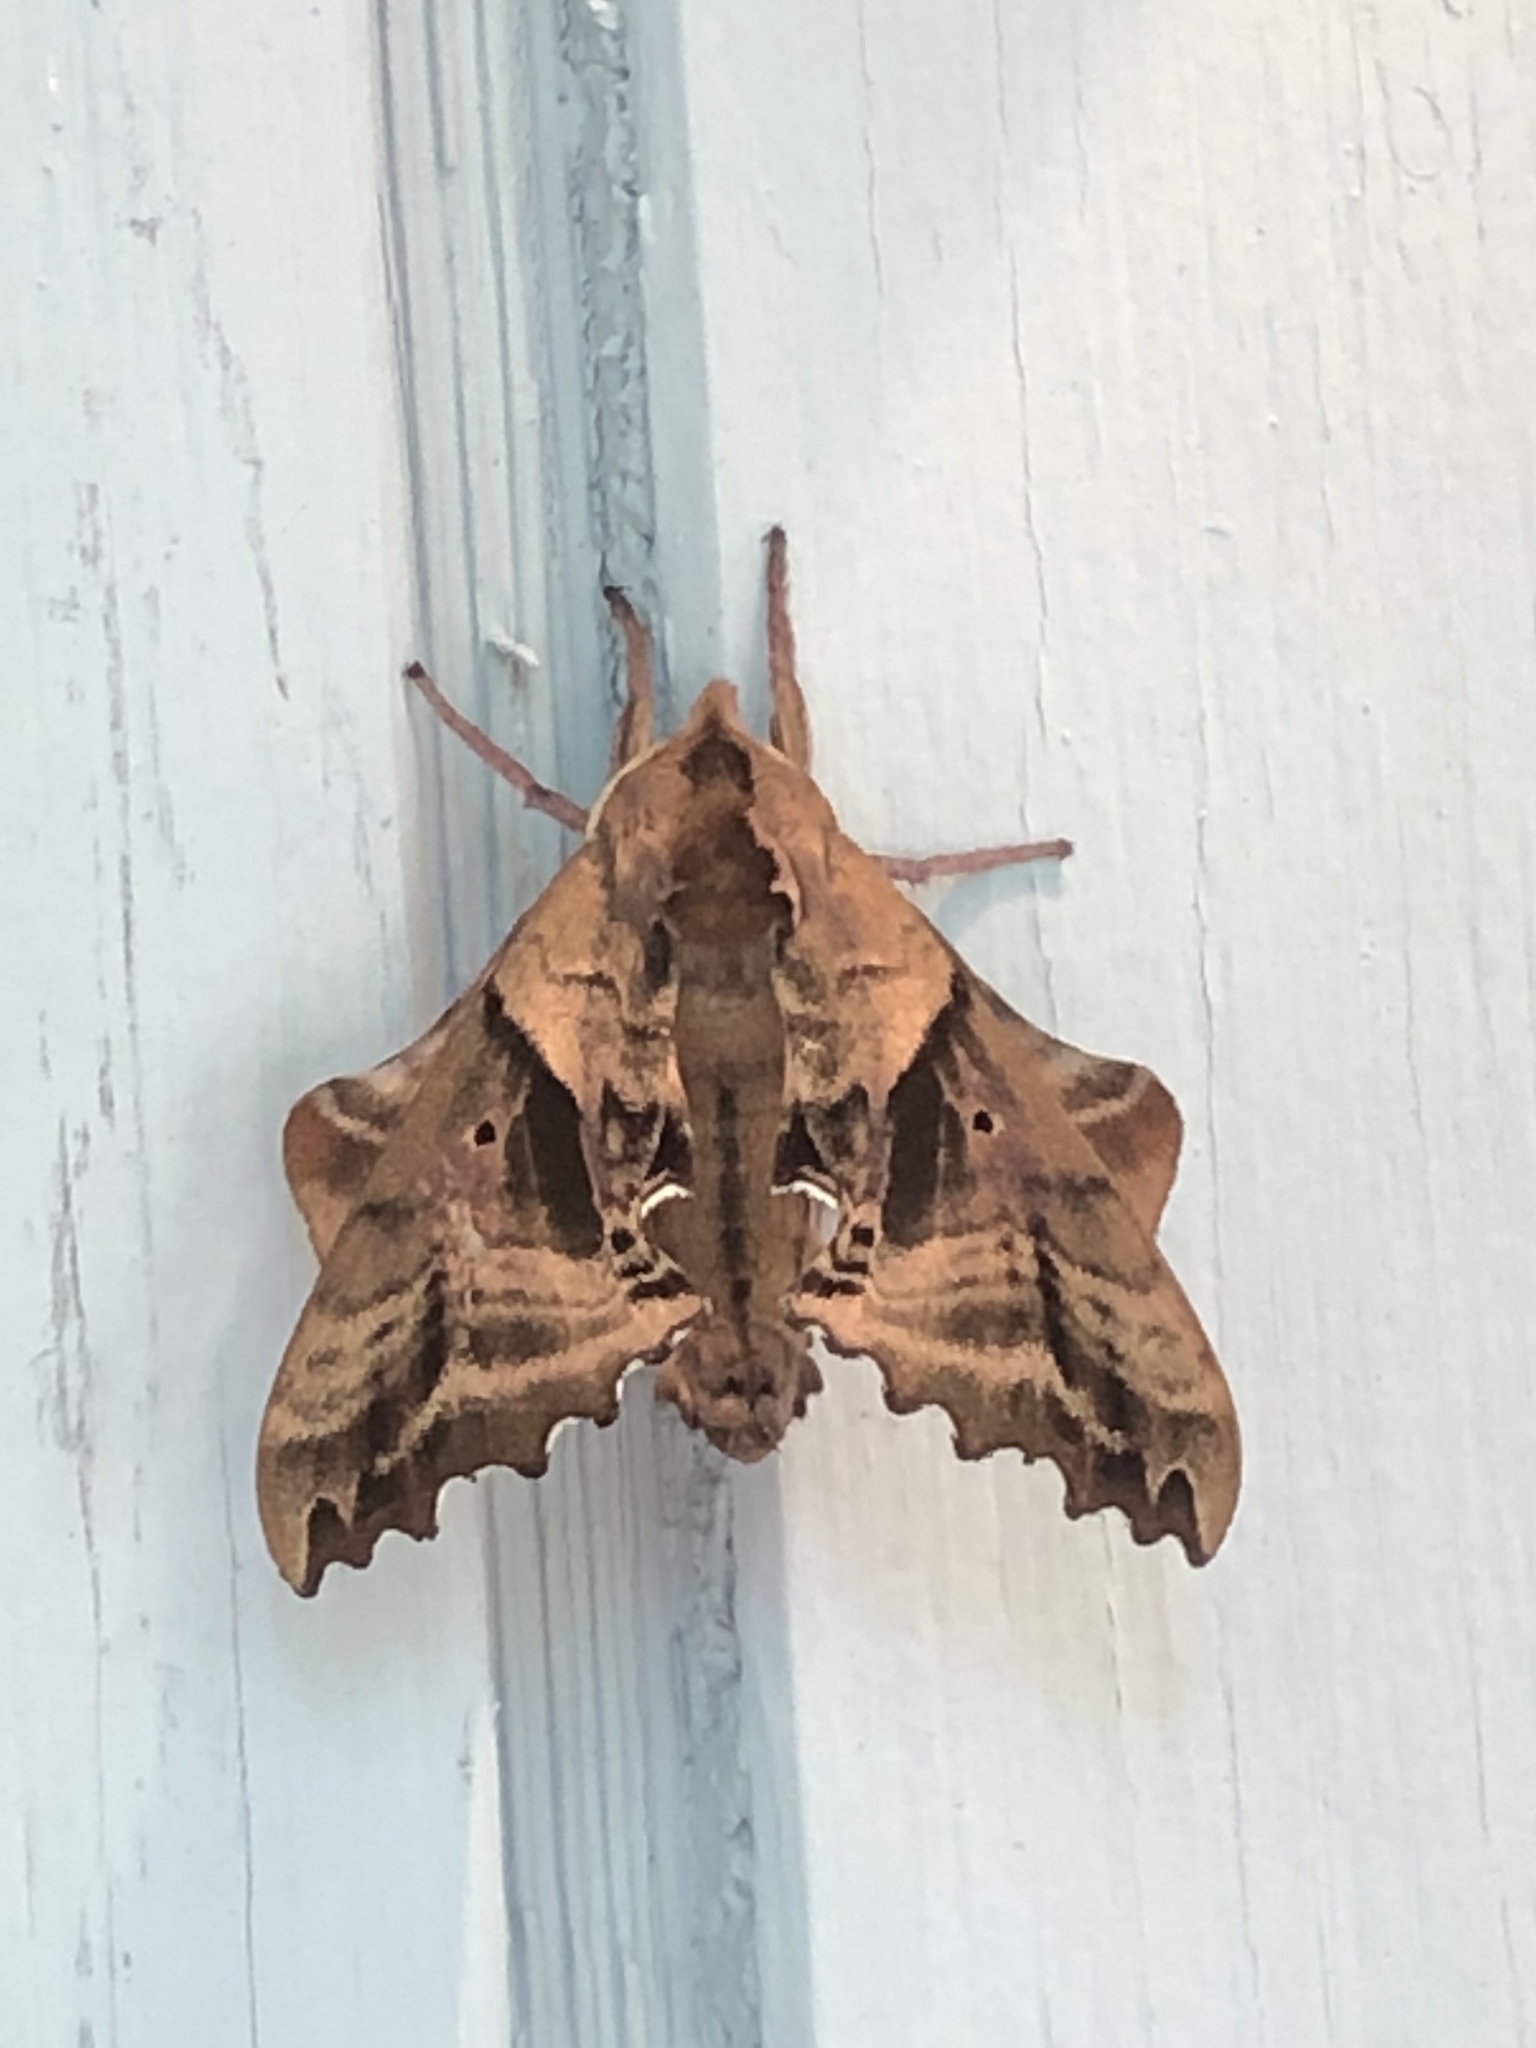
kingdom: Animalia
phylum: Arthropoda
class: Insecta
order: Lepidoptera
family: Sphingidae
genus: Paonias
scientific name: Paonias myops
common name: Small-eyed sphinx
